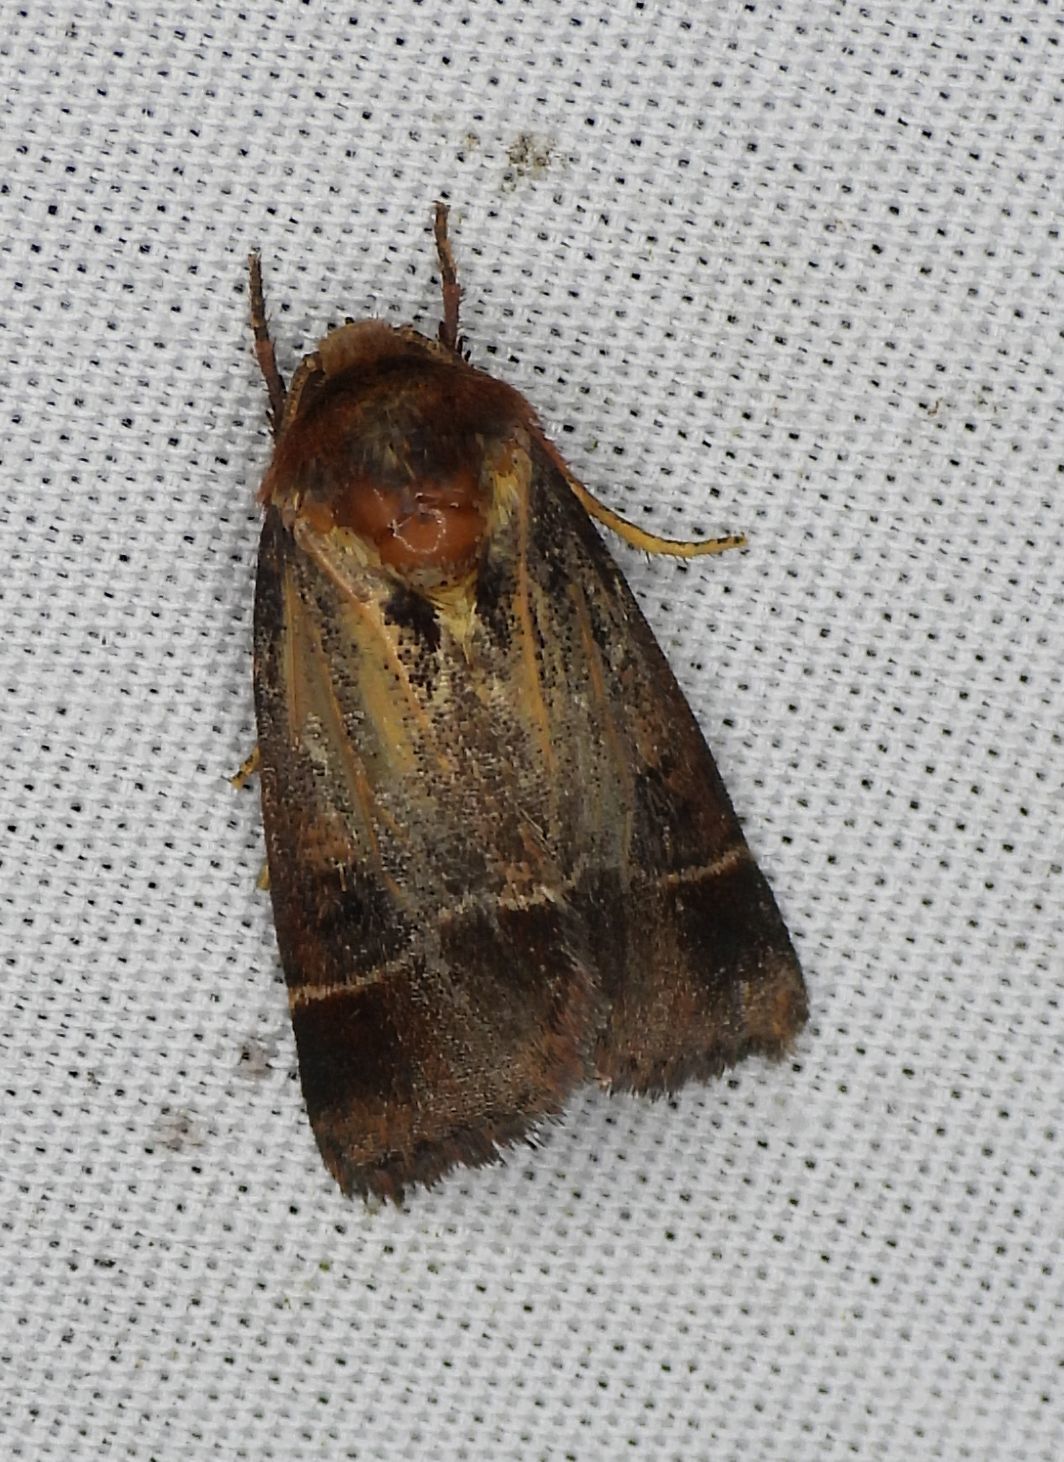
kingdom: Animalia
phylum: Arthropoda
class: Insecta
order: Lepidoptera
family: Noctuidae
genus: Schinia
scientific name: Schinia arcigera
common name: Arcigera flower moth
